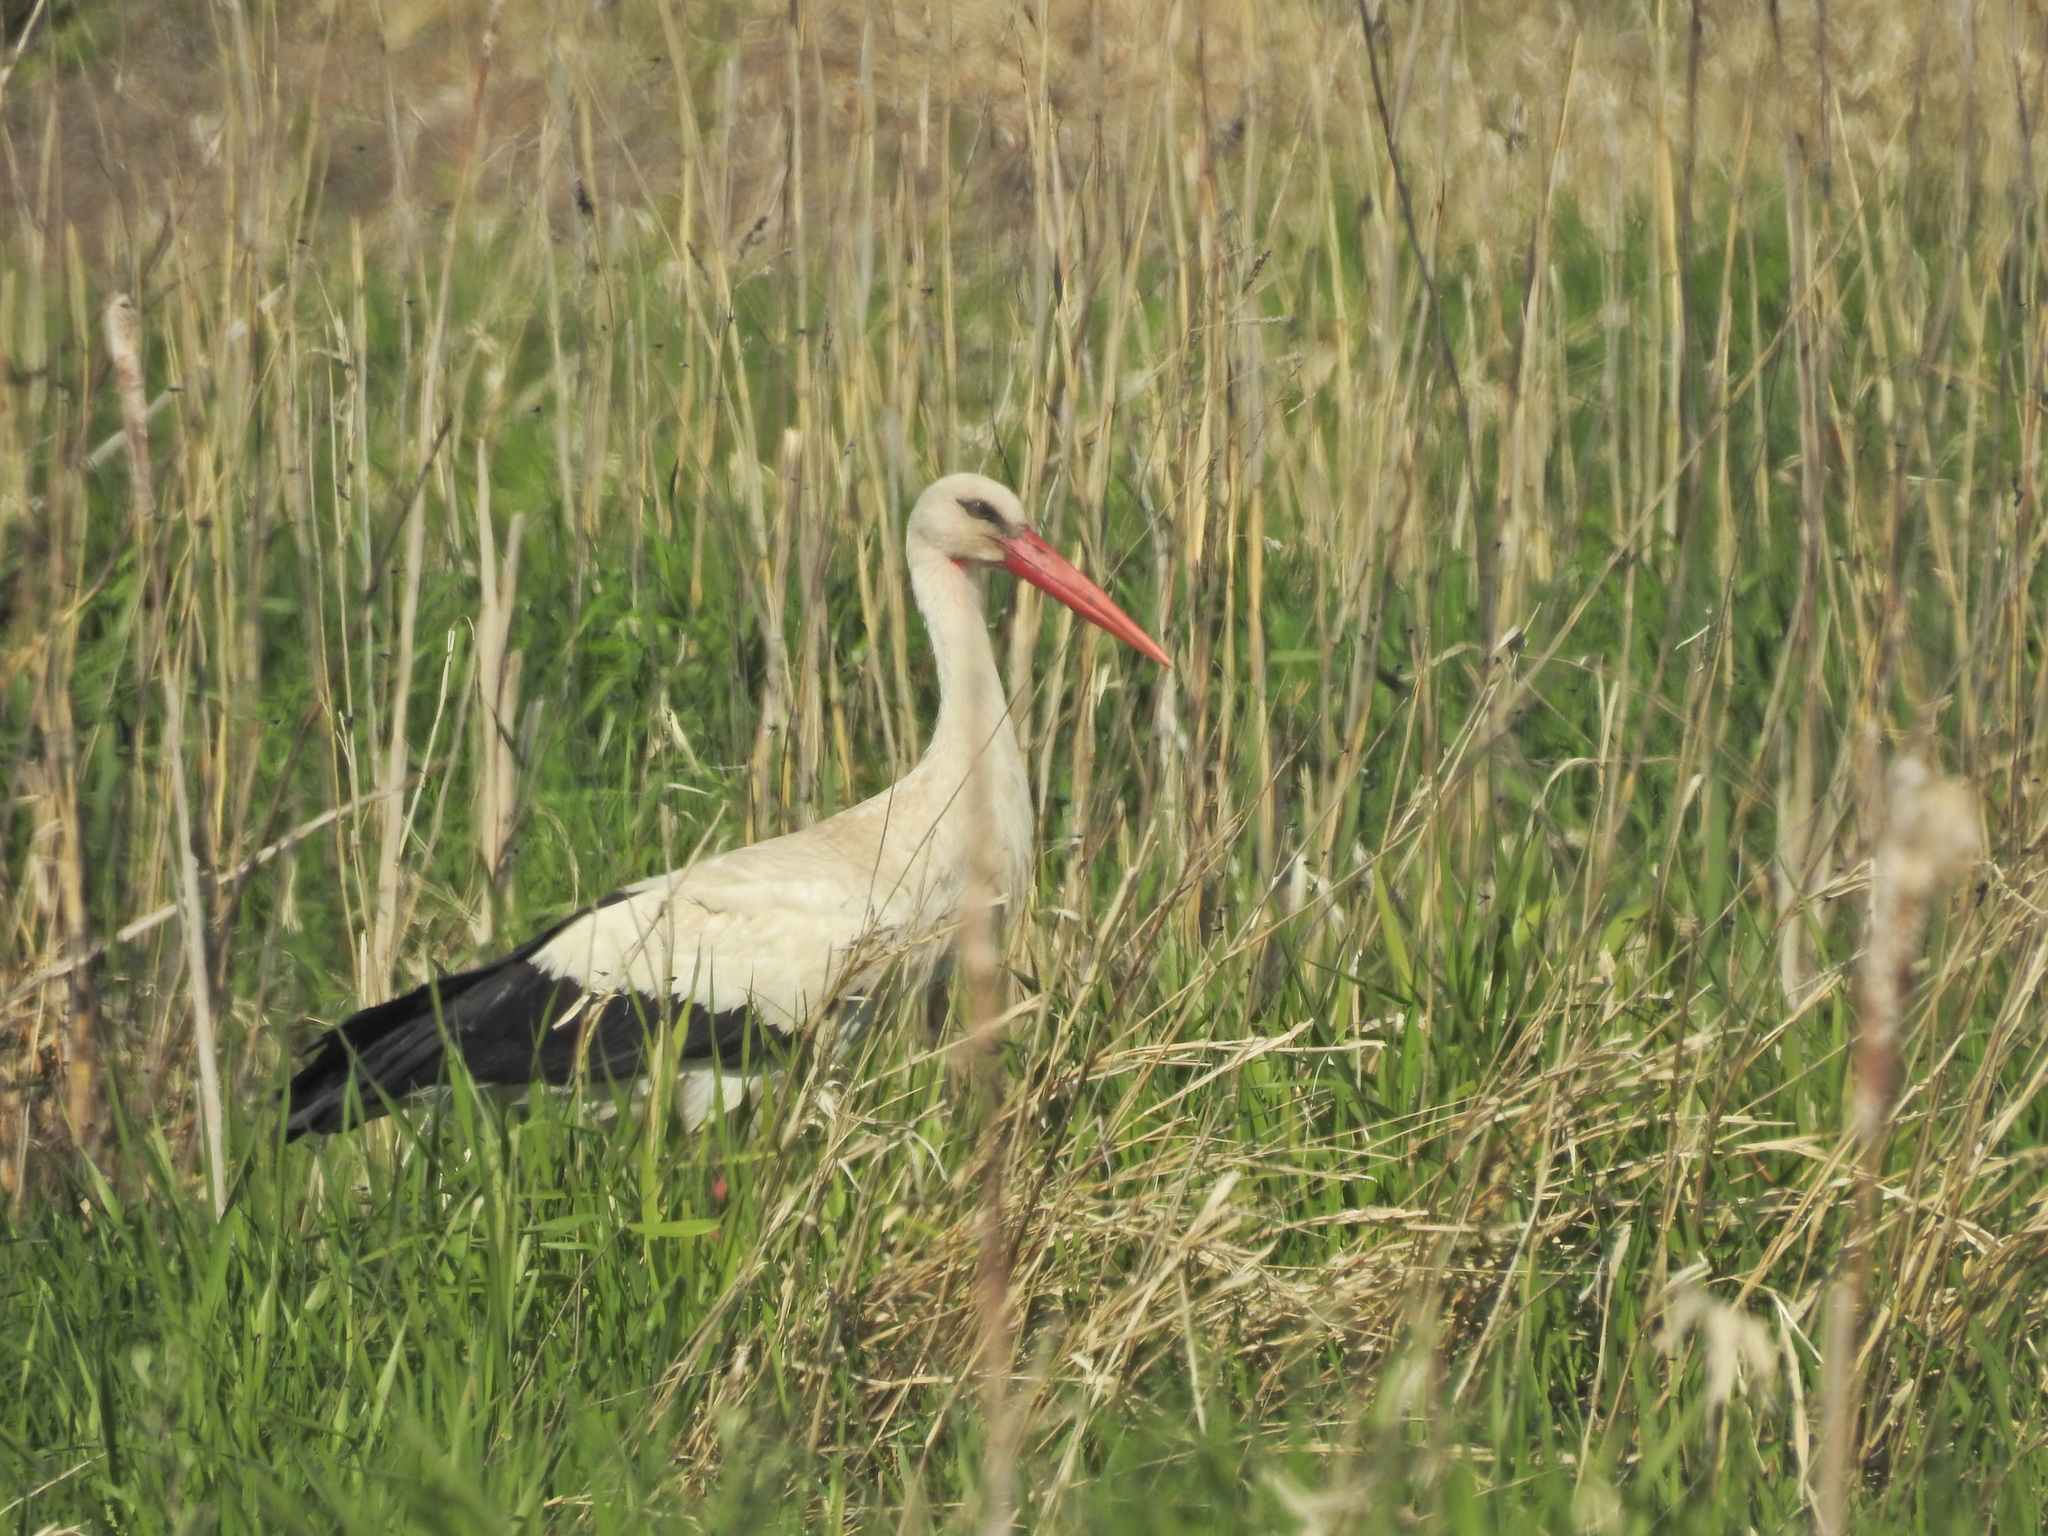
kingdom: Animalia
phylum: Chordata
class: Aves
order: Ciconiiformes
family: Ciconiidae
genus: Ciconia
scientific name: Ciconia ciconia
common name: White stork
